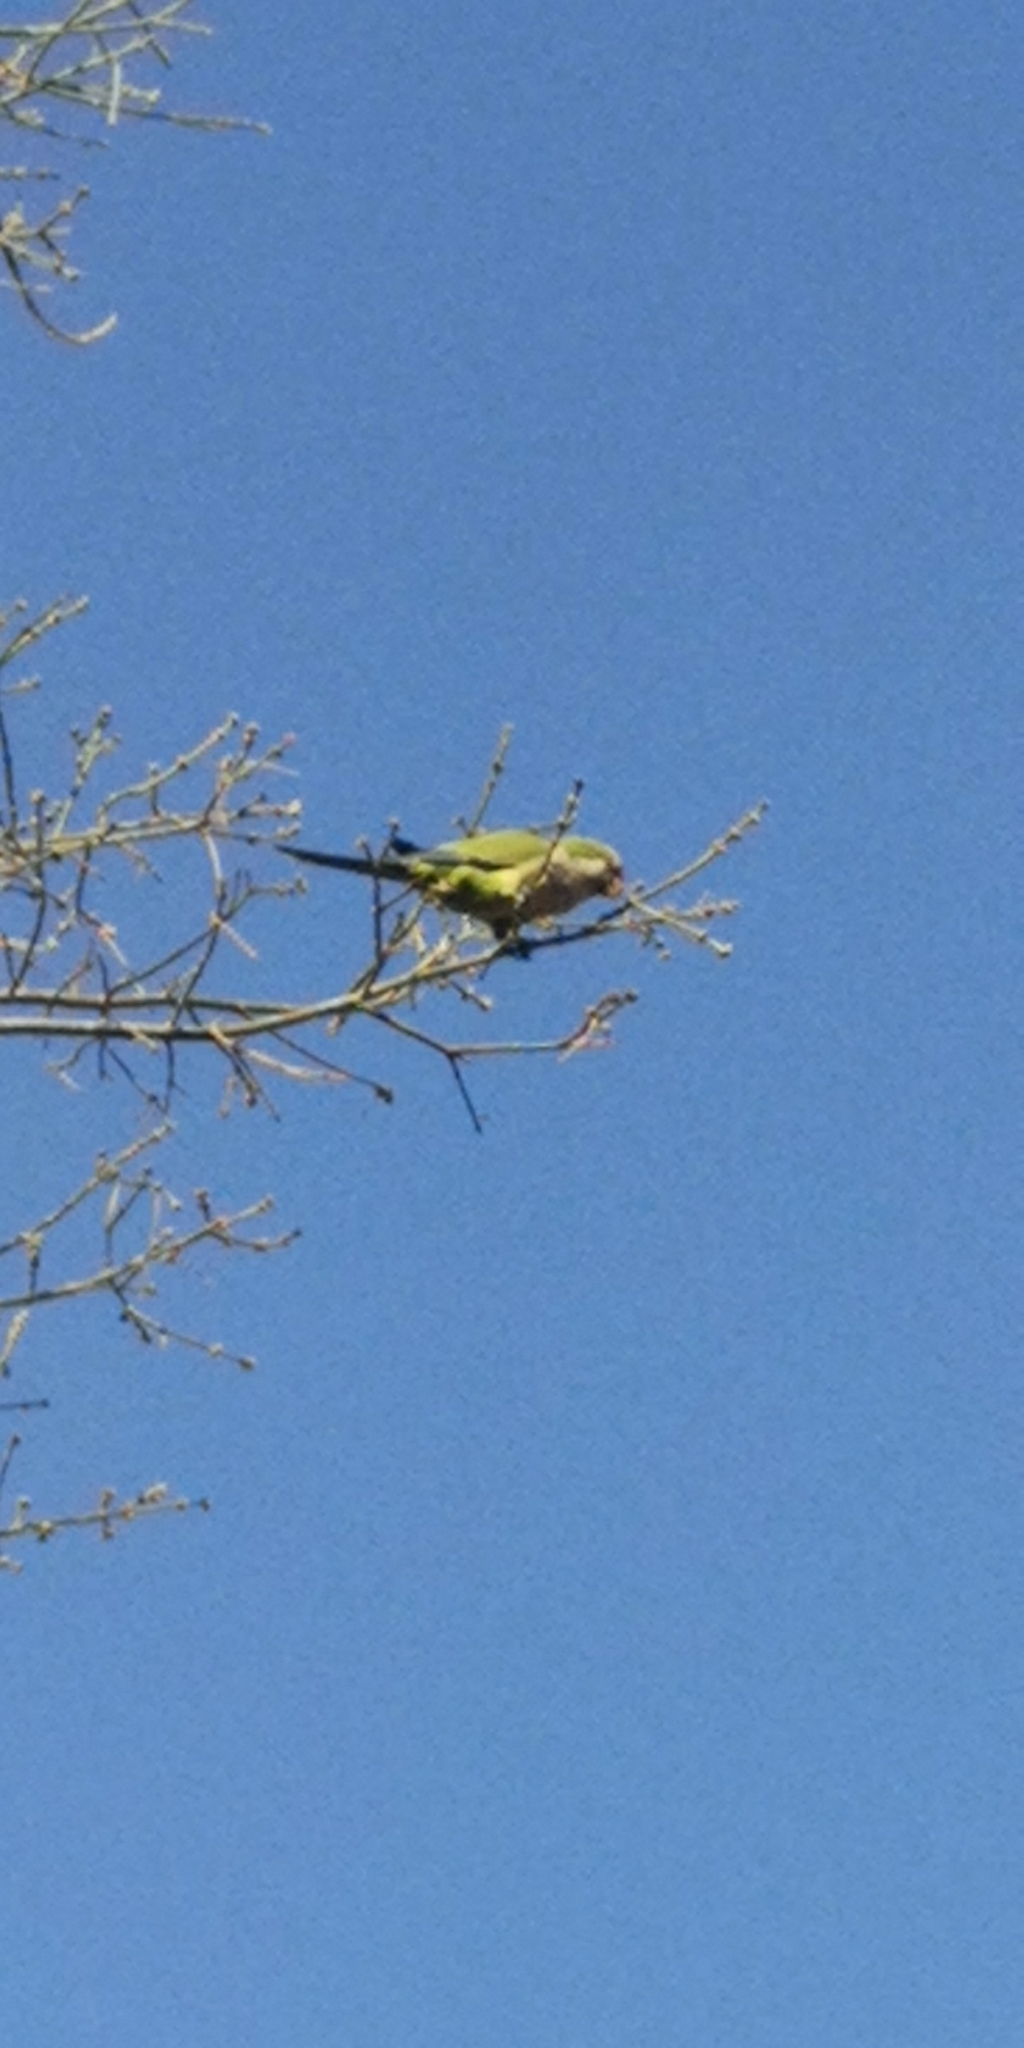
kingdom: Animalia
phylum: Chordata
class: Aves
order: Psittaciformes
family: Psittacidae
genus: Myiopsitta
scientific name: Myiopsitta monachus
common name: Monk parakeet
